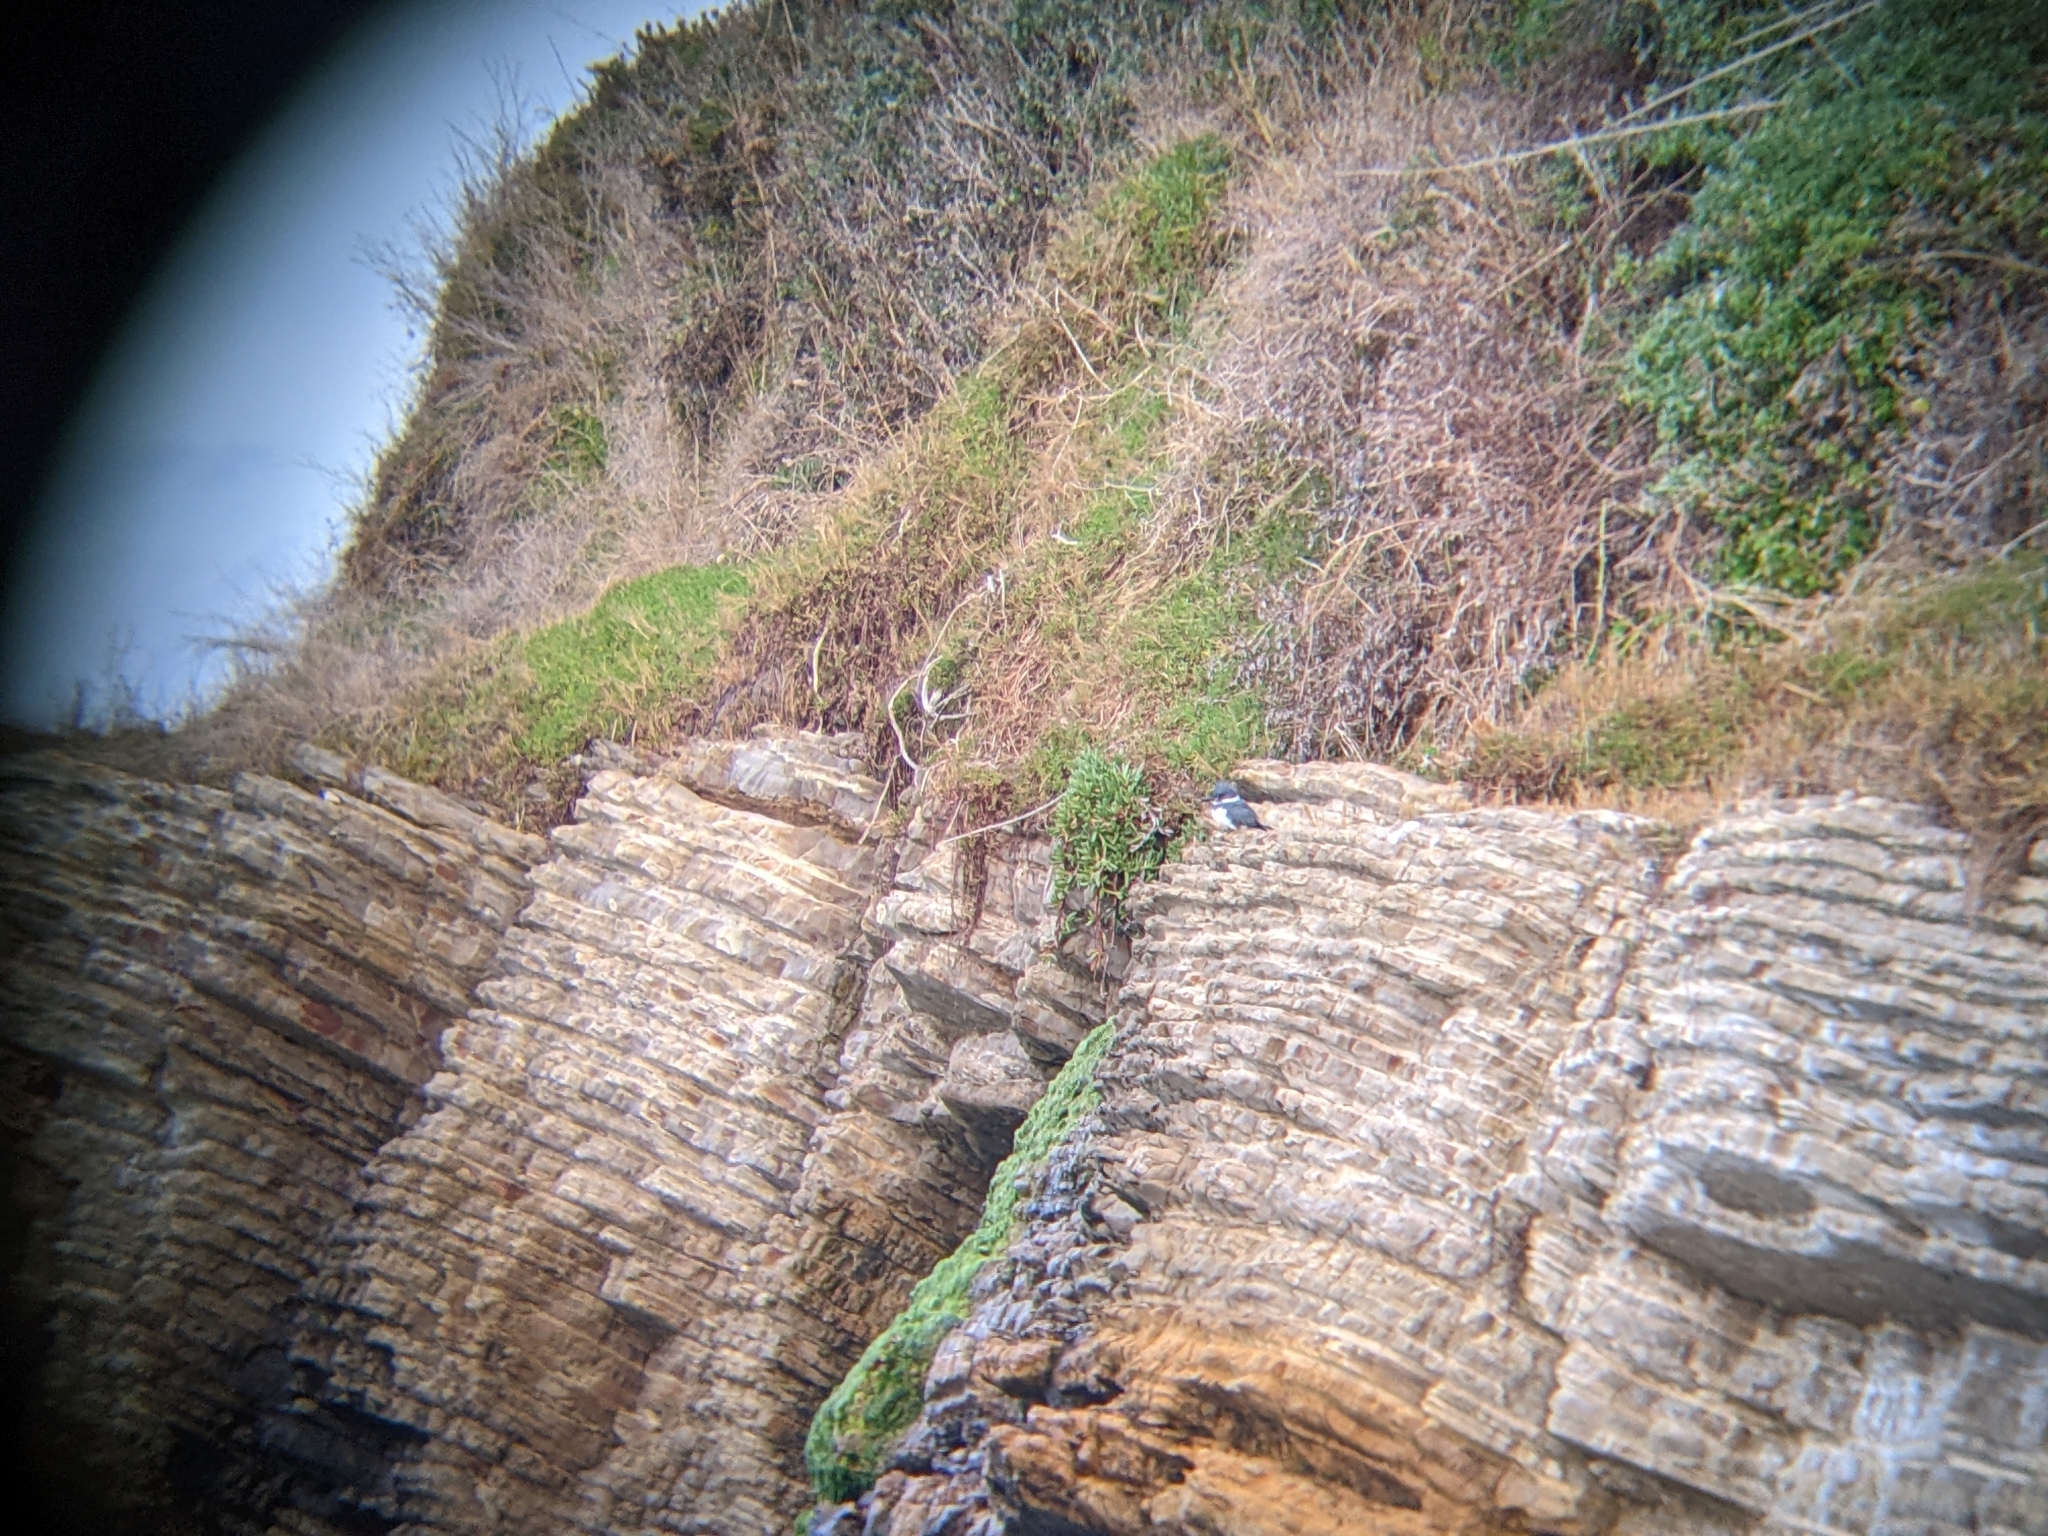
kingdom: Animalia
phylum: Chordata
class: Aves
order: Coraciiformes
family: Alcedinidae
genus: Megaceryle
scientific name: Megaceryle alcyon
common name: Belted kingfisher
